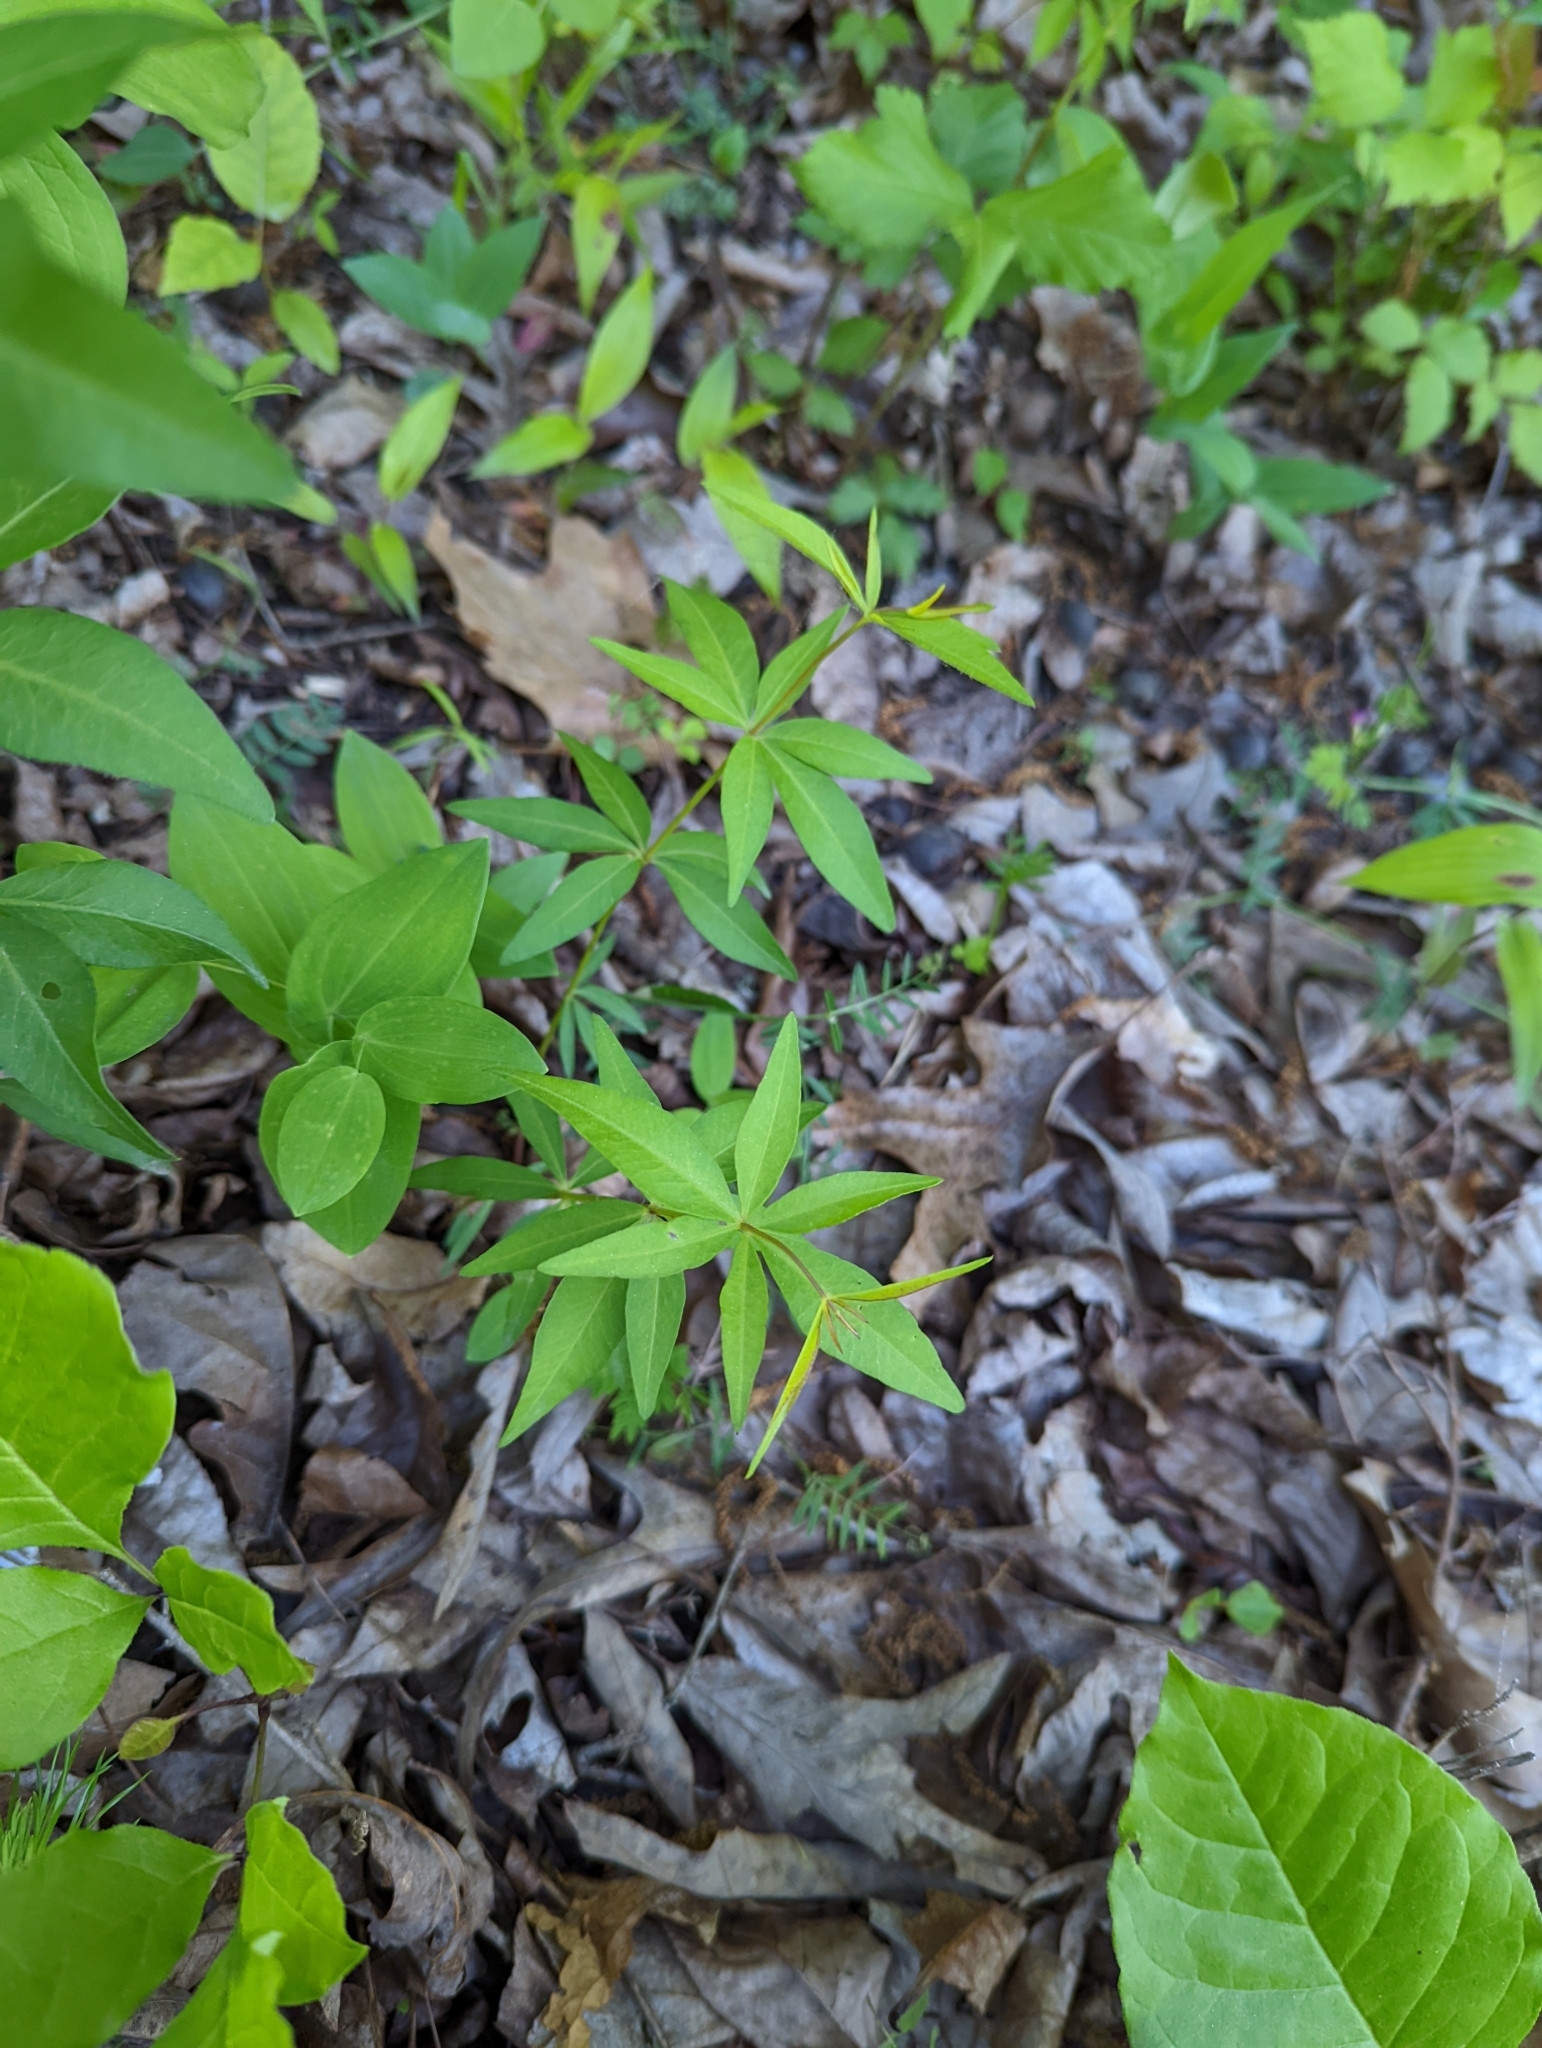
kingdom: Plantae
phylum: Tracheophyta
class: Magnoliopsida
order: Asterales
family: Asteraceae
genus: Coreopsis
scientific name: Coreopsis major
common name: Forest tickseed
